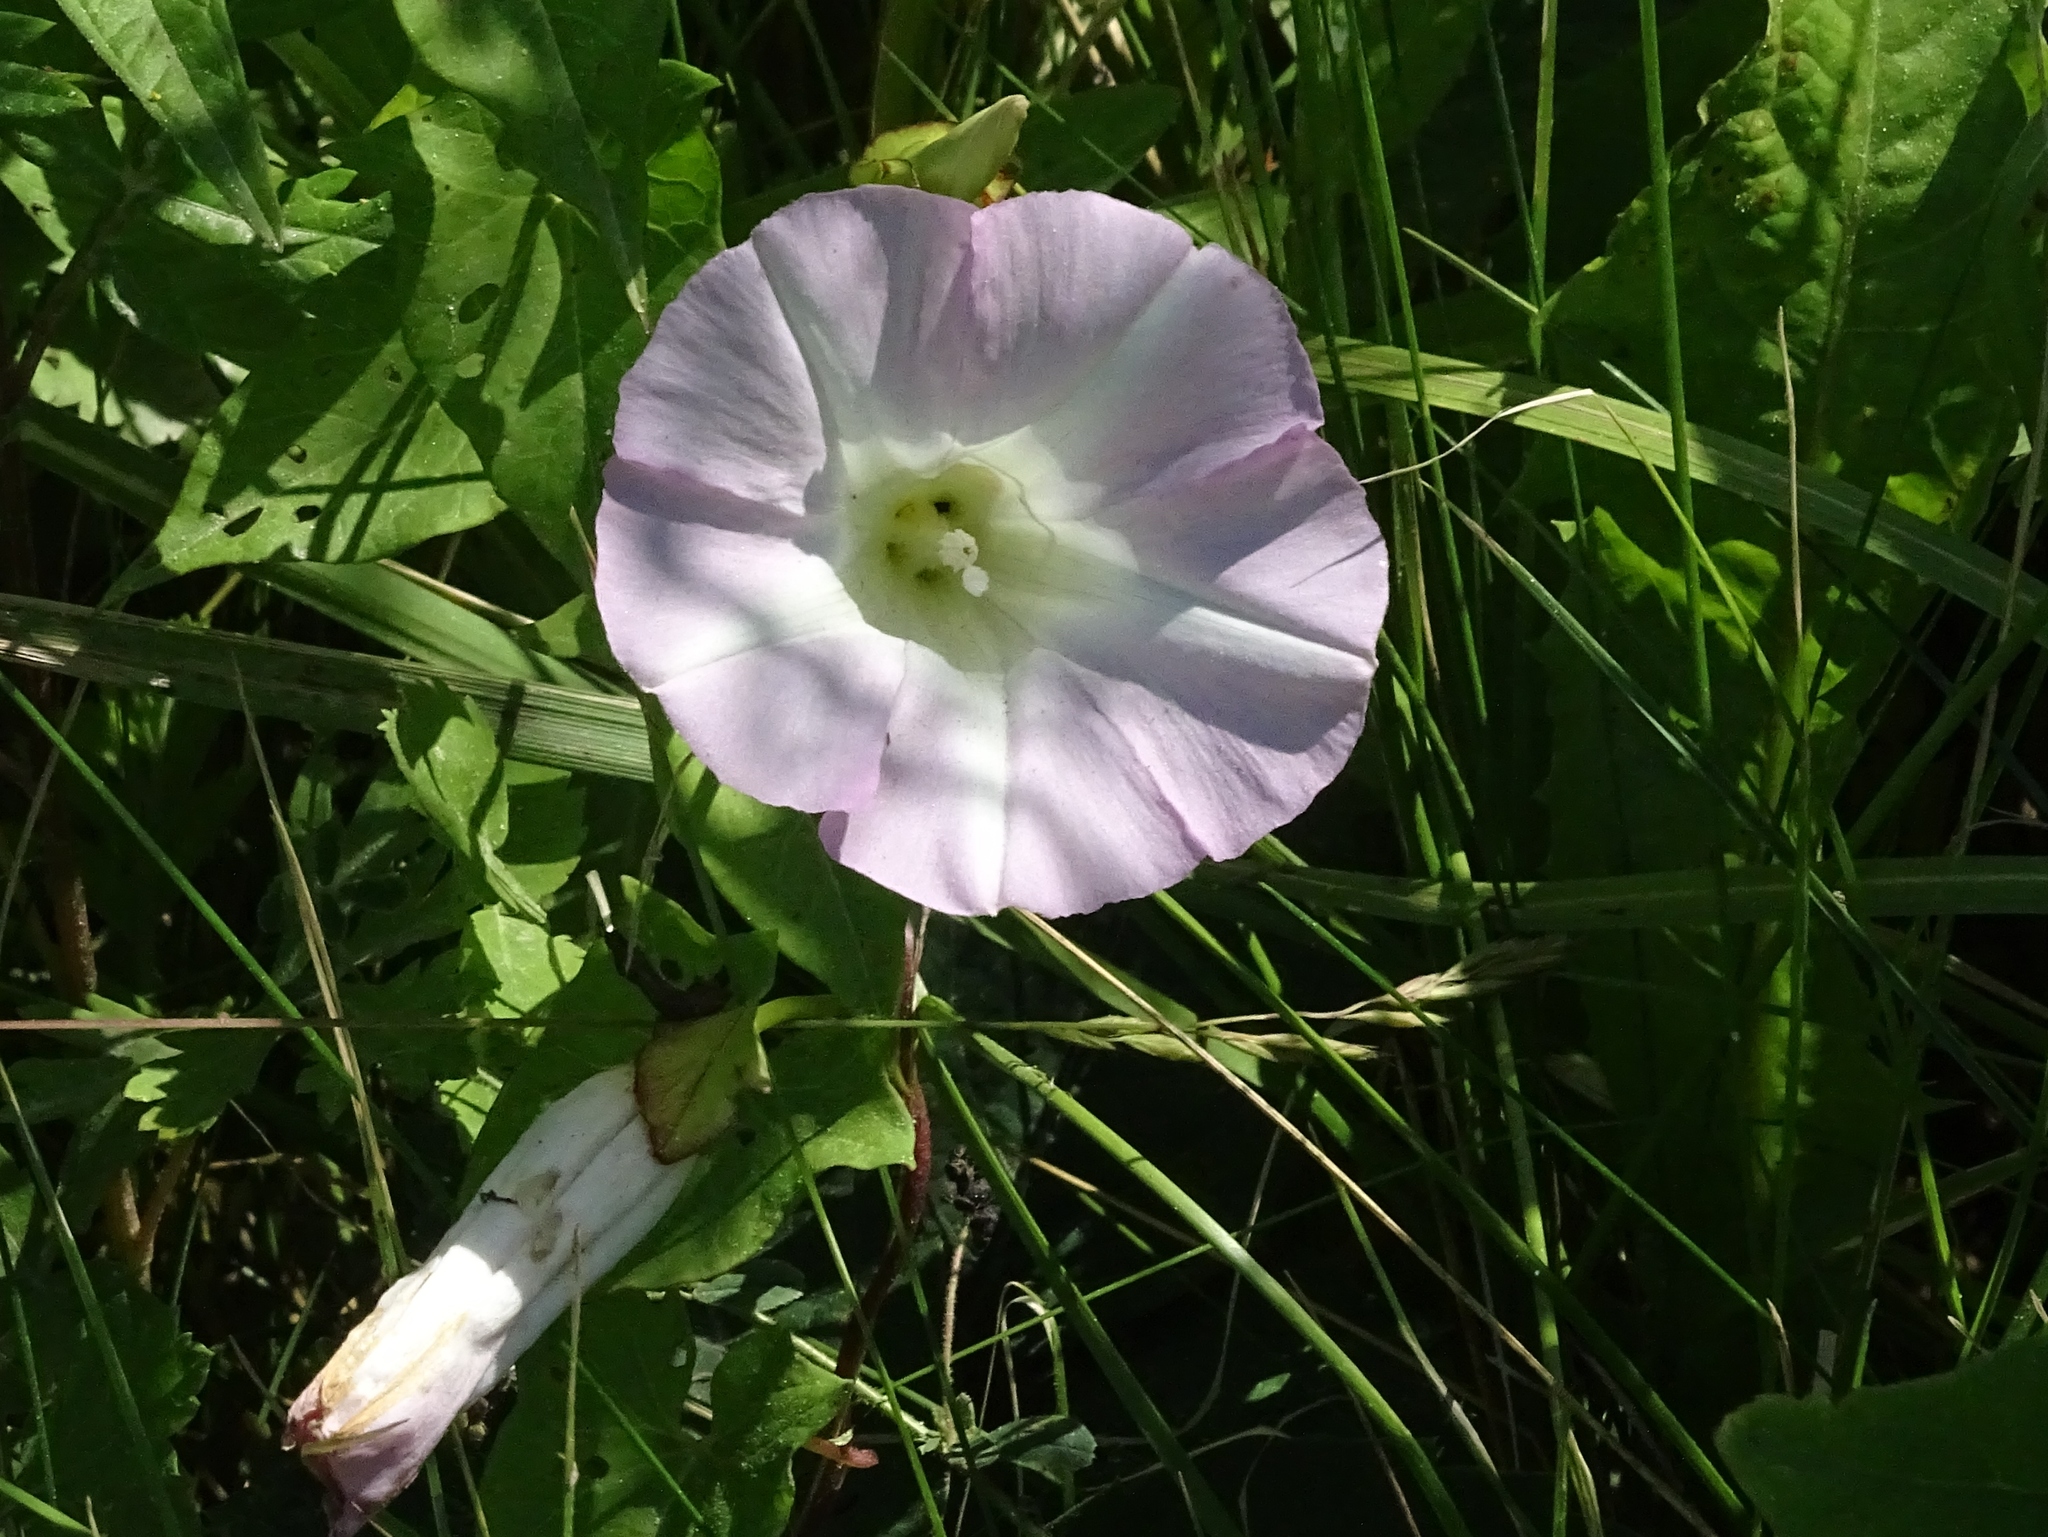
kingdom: Plantae
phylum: Tracheophyta
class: Magnoliopsida
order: Solanales
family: Convolvulaceae
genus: Calystegia
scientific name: Calystegia sepium
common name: Hedge bindweed
